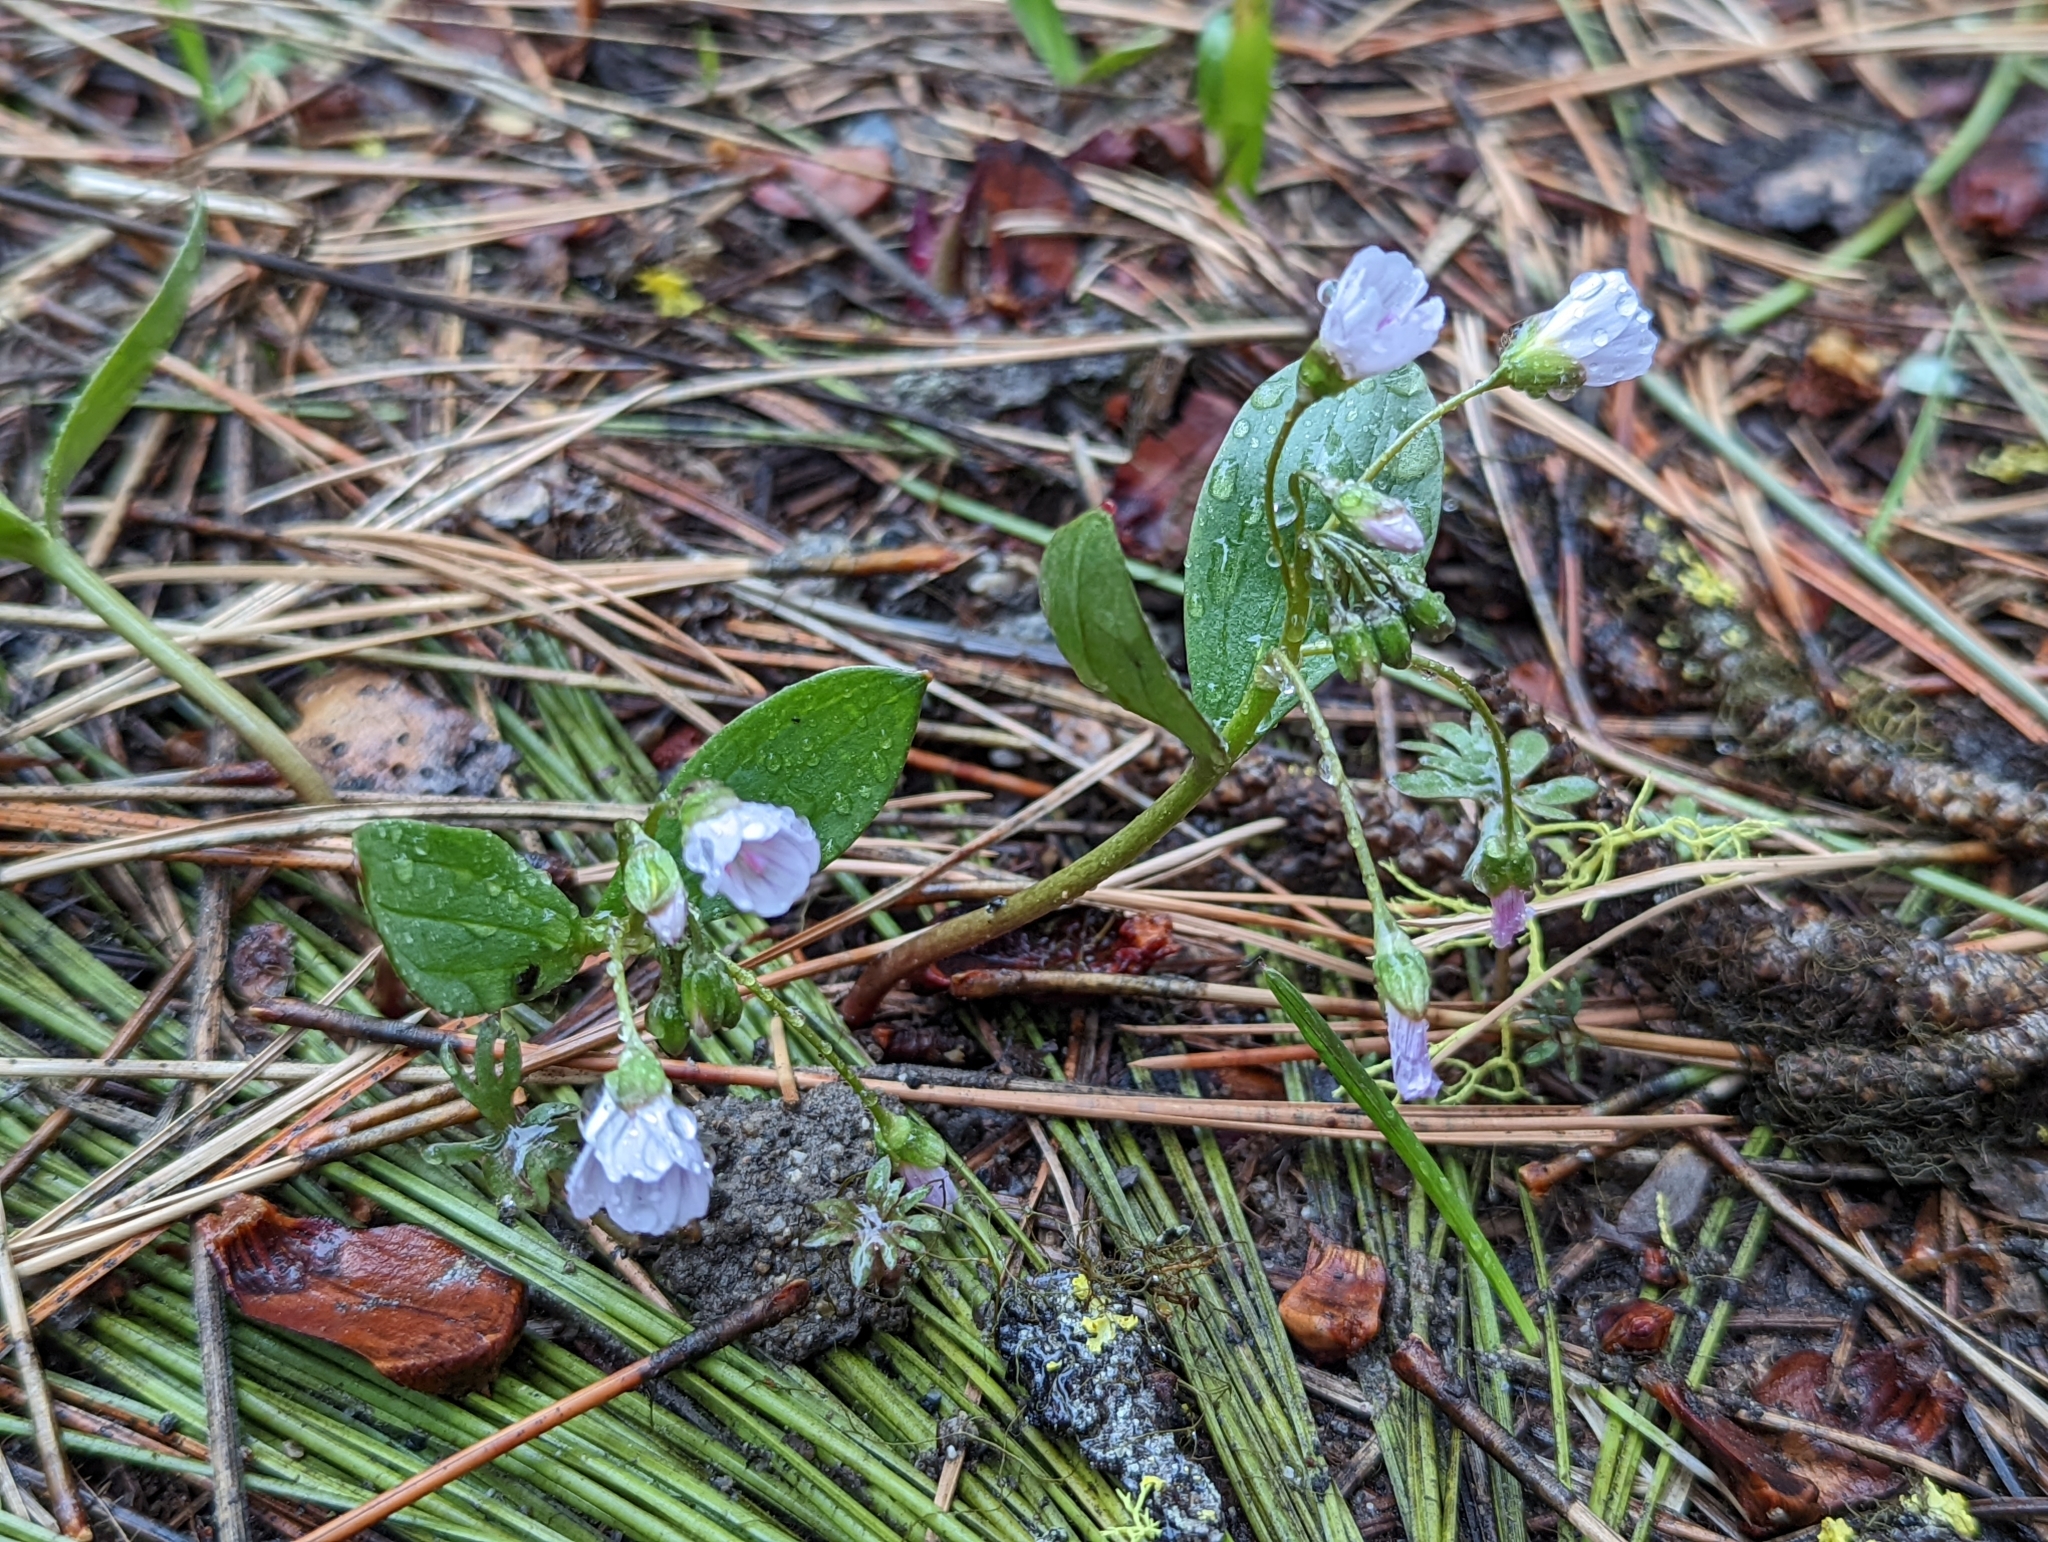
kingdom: Plantae
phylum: Tracheophyta
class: Magnoliopsida
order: Caryophyllales
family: Montiaceae
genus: Claytonia
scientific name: Claytonia lanceolata
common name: Western spring-beauty
